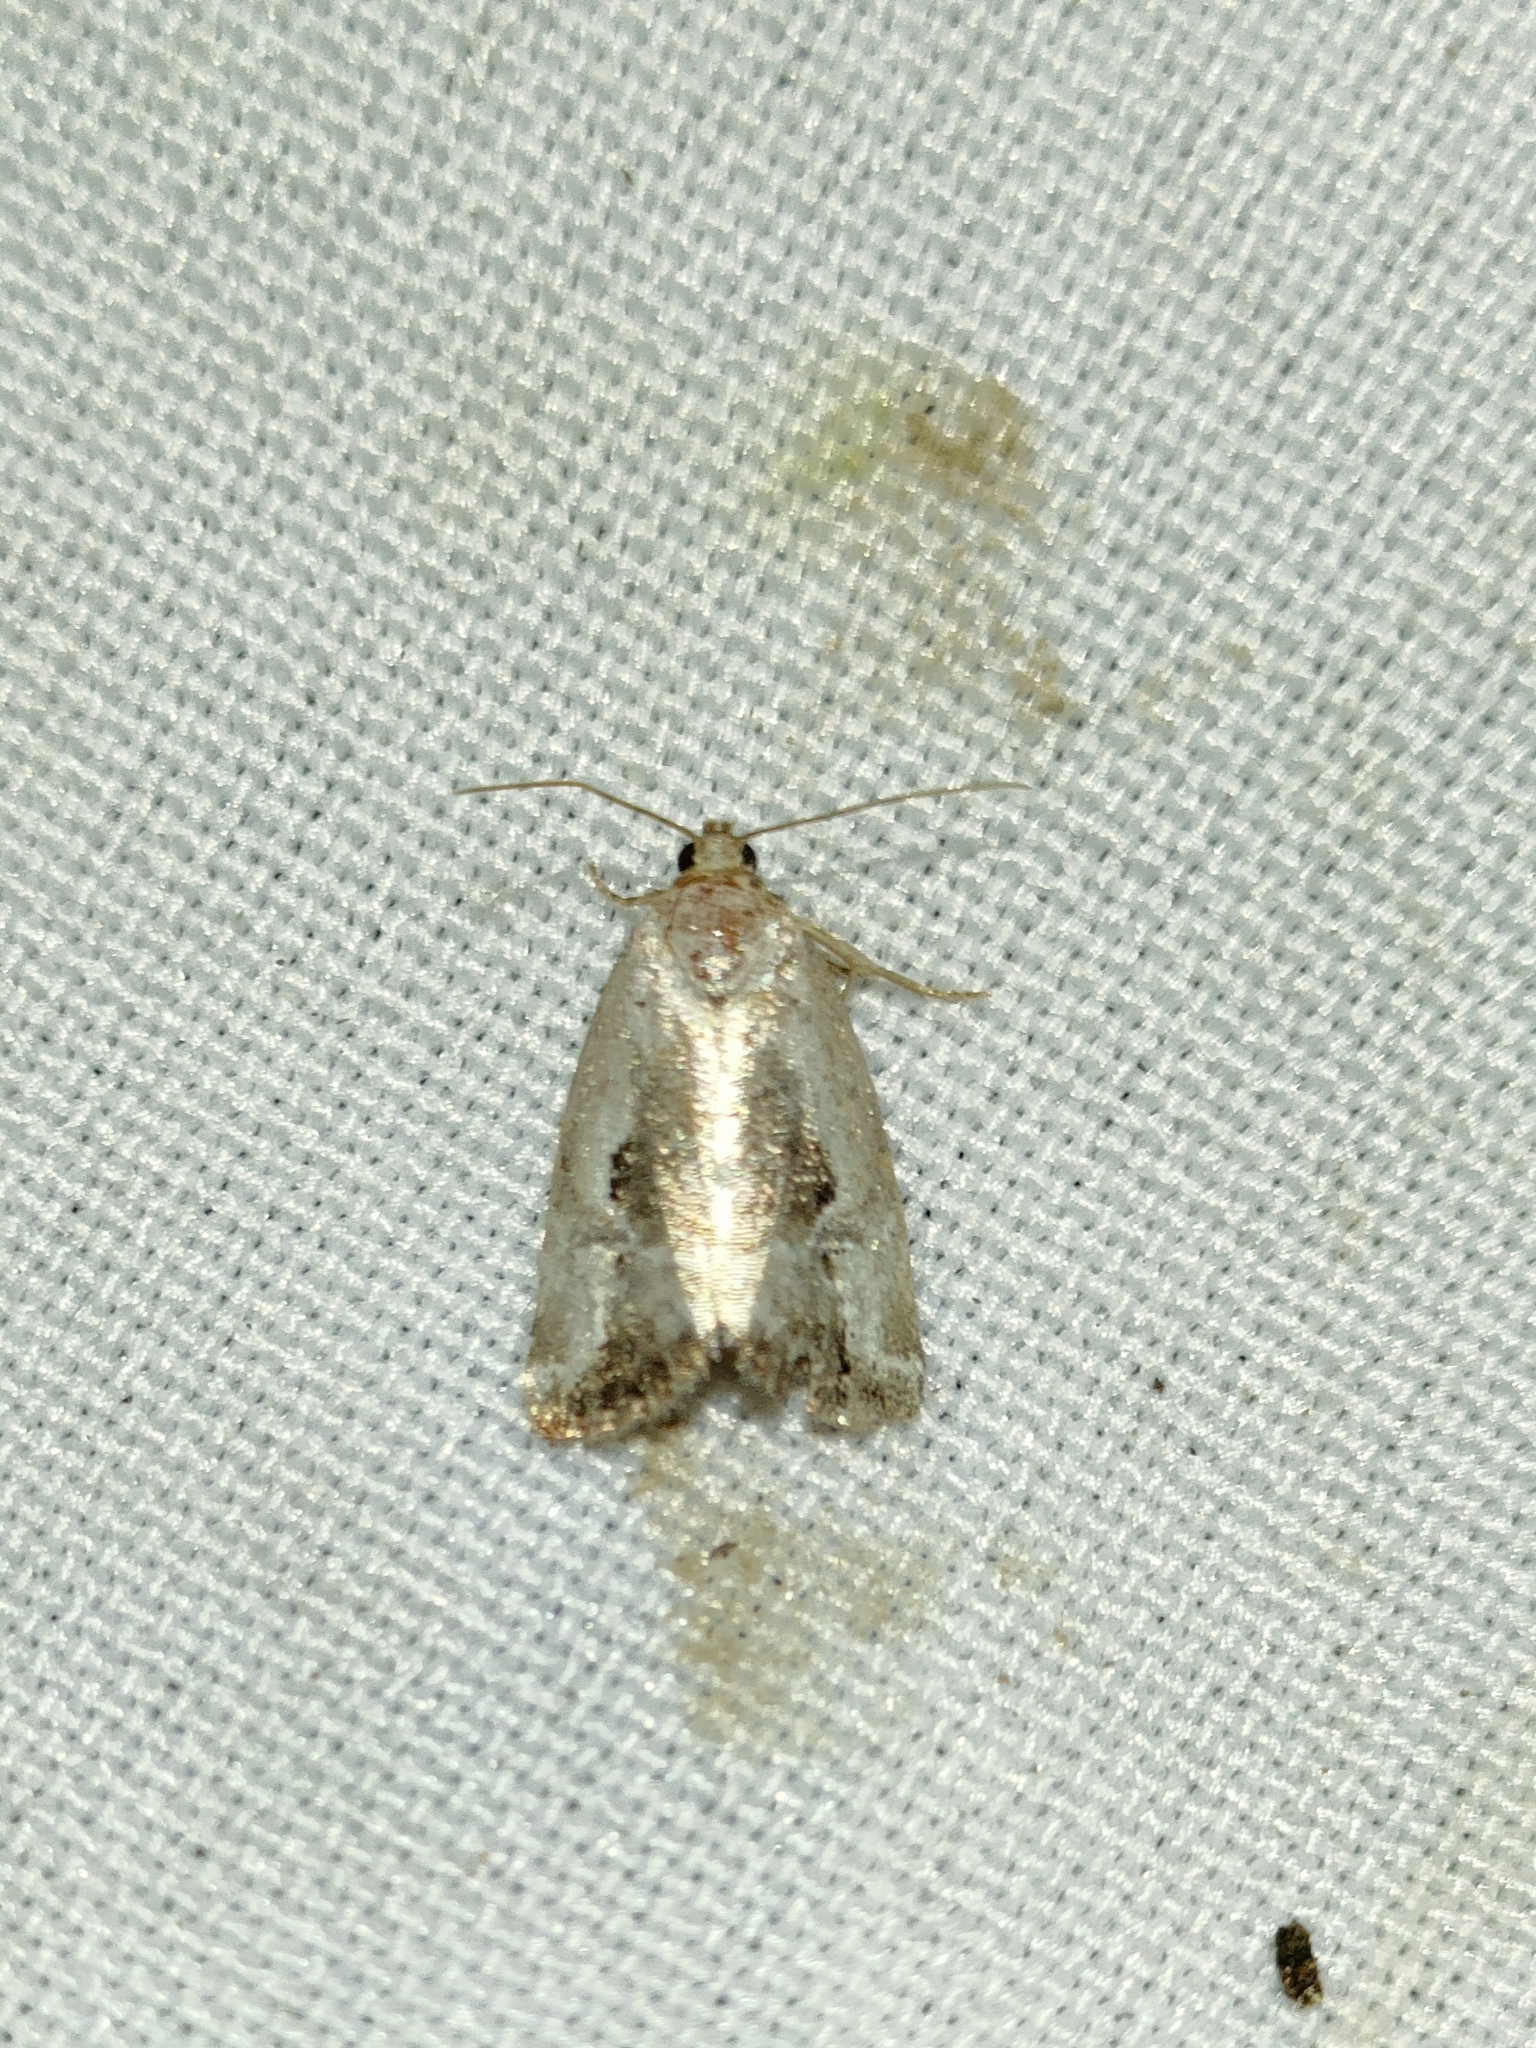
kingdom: Animalia
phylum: Arthropoda
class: Insecta
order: Lepidoptera
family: Noctuidae
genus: Elaphria
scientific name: Elaphria venustula
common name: Rosy marbled
